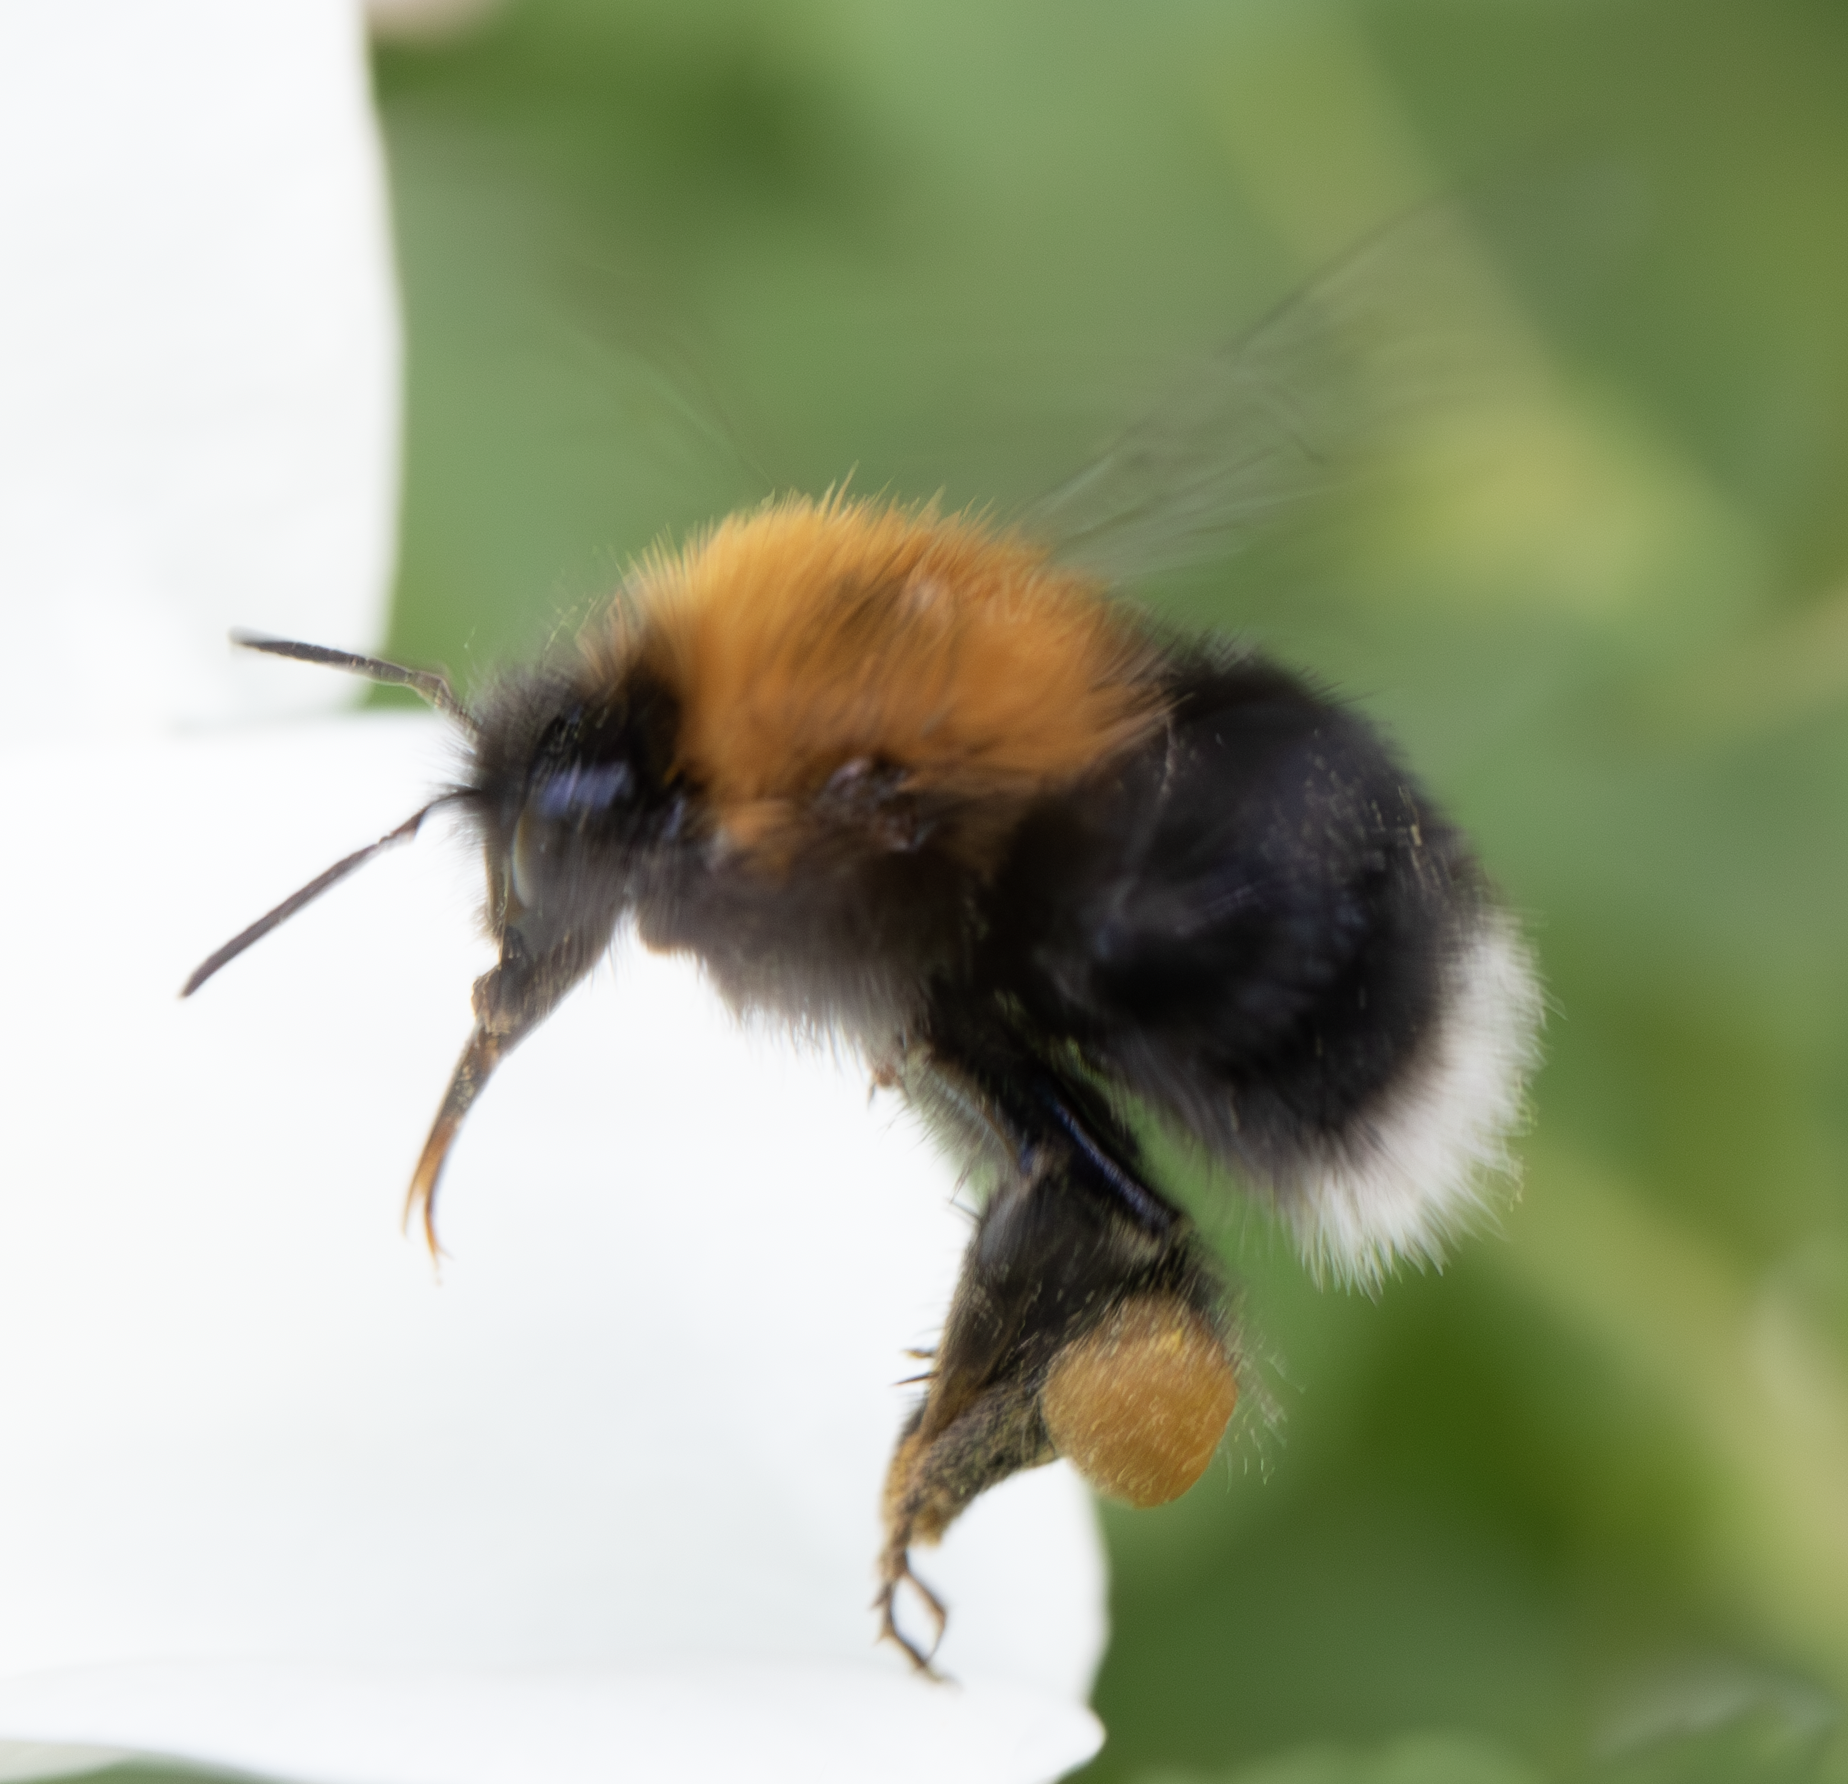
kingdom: Animalia
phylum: Arthropoda
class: Insecta
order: Hymenoptera
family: Apidae
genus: Bombus
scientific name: Bombus hypnorum
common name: New garden bumblebee
